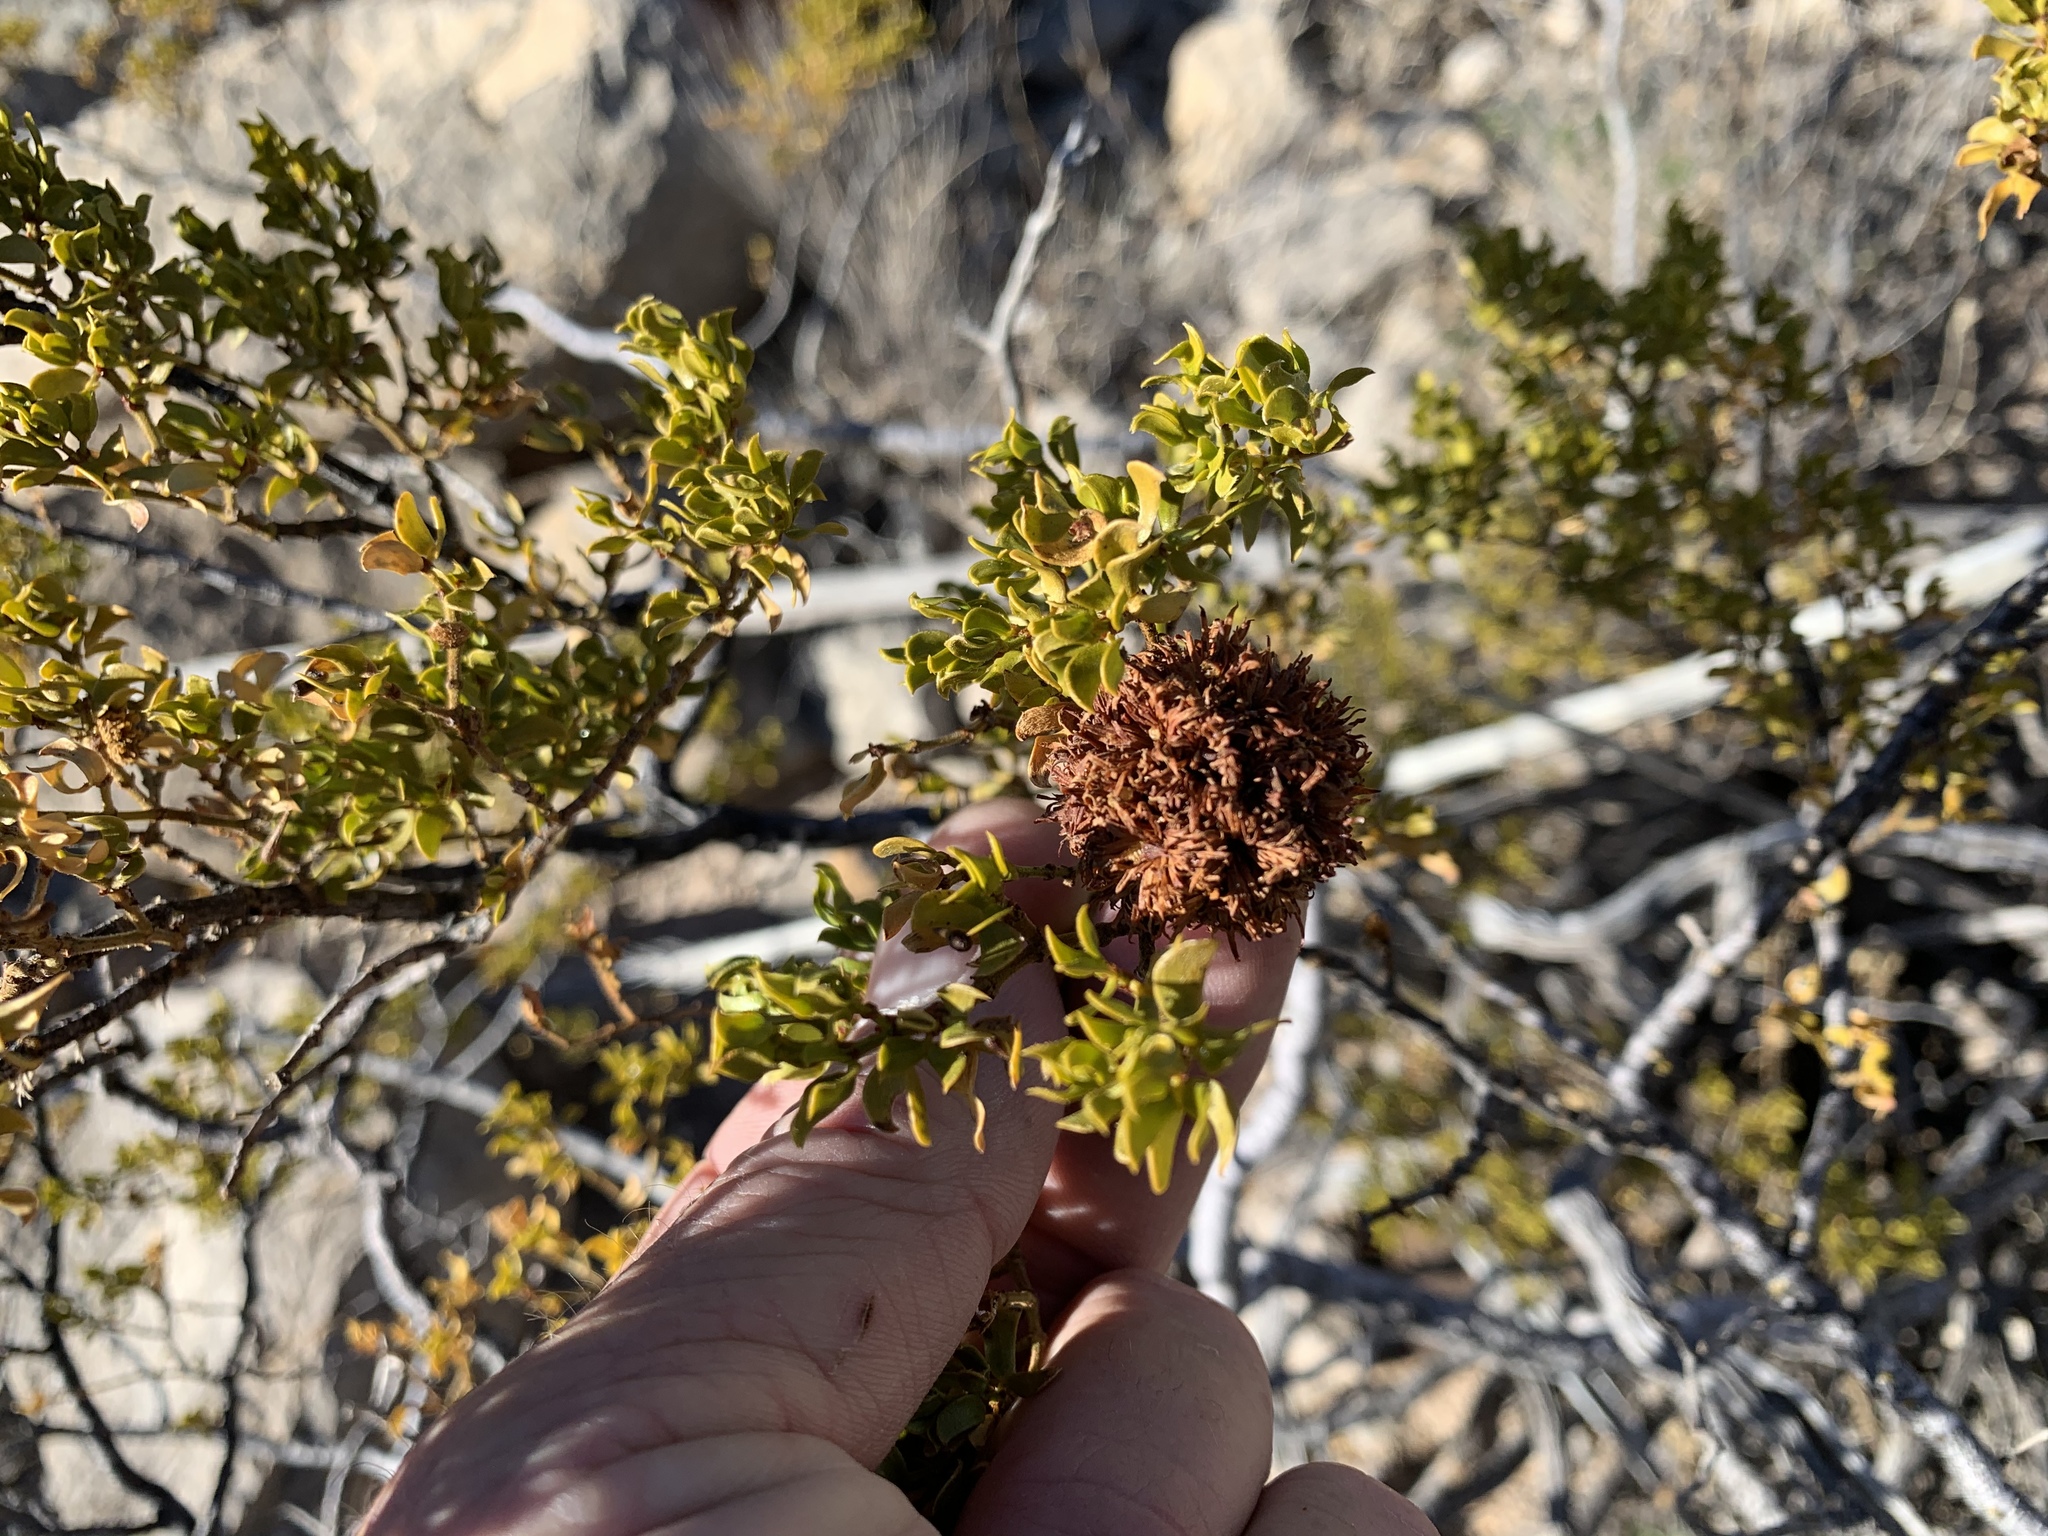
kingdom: Animalia
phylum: Arthropoda
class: Insecta
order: Diptera
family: Cecidomyiidae
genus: Asphondylia
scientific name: Asphondylia auripila
